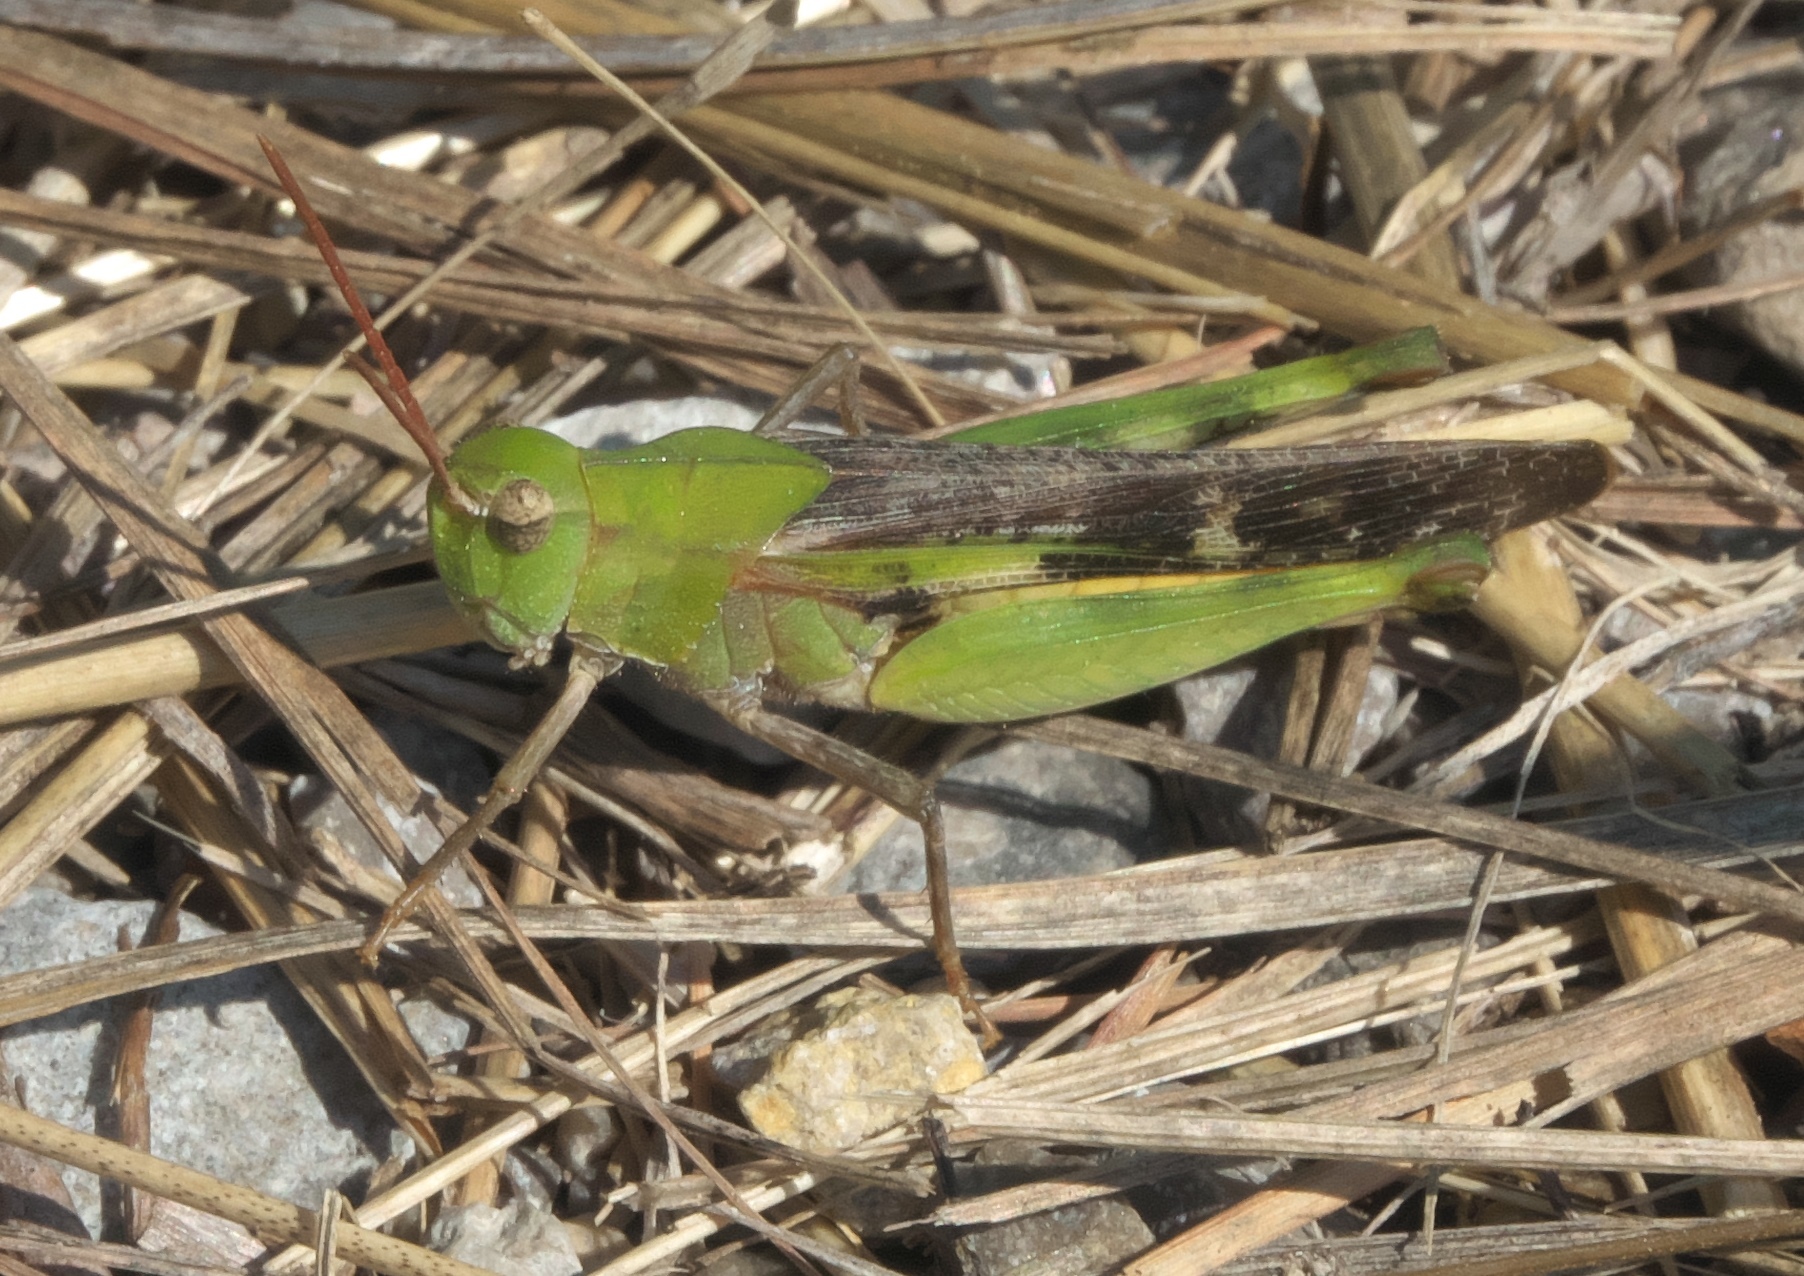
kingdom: Animalia
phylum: Arthropoda
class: Insecta
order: Orthoptera
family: Acrididae
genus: Chortophaga
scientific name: Chortophaga viridifasciata
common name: Green-striped grasshopper
